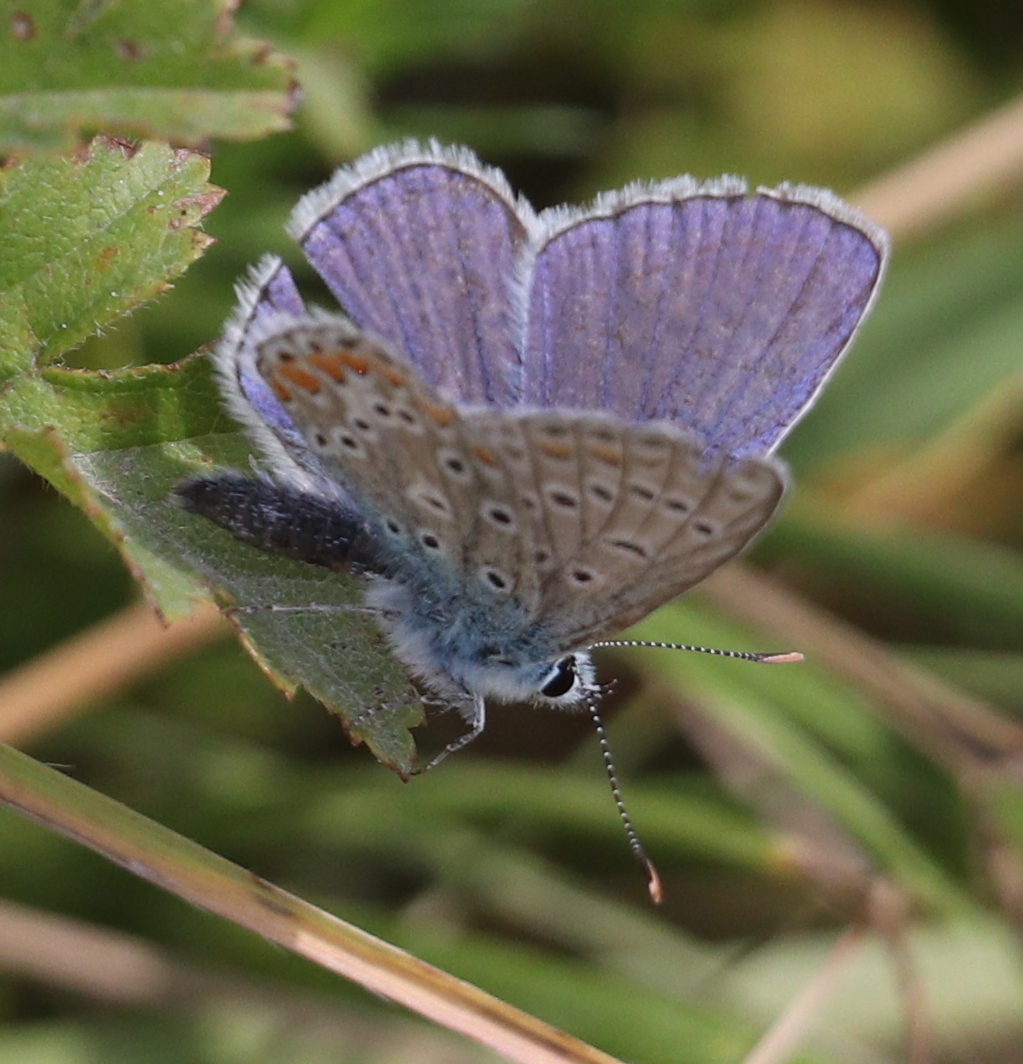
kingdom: Animalia
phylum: Arthropoda
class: Insecta
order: Lepidoptera
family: Lycaenidae
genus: Polyommatus
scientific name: Polyommatus icarus
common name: Common blue
